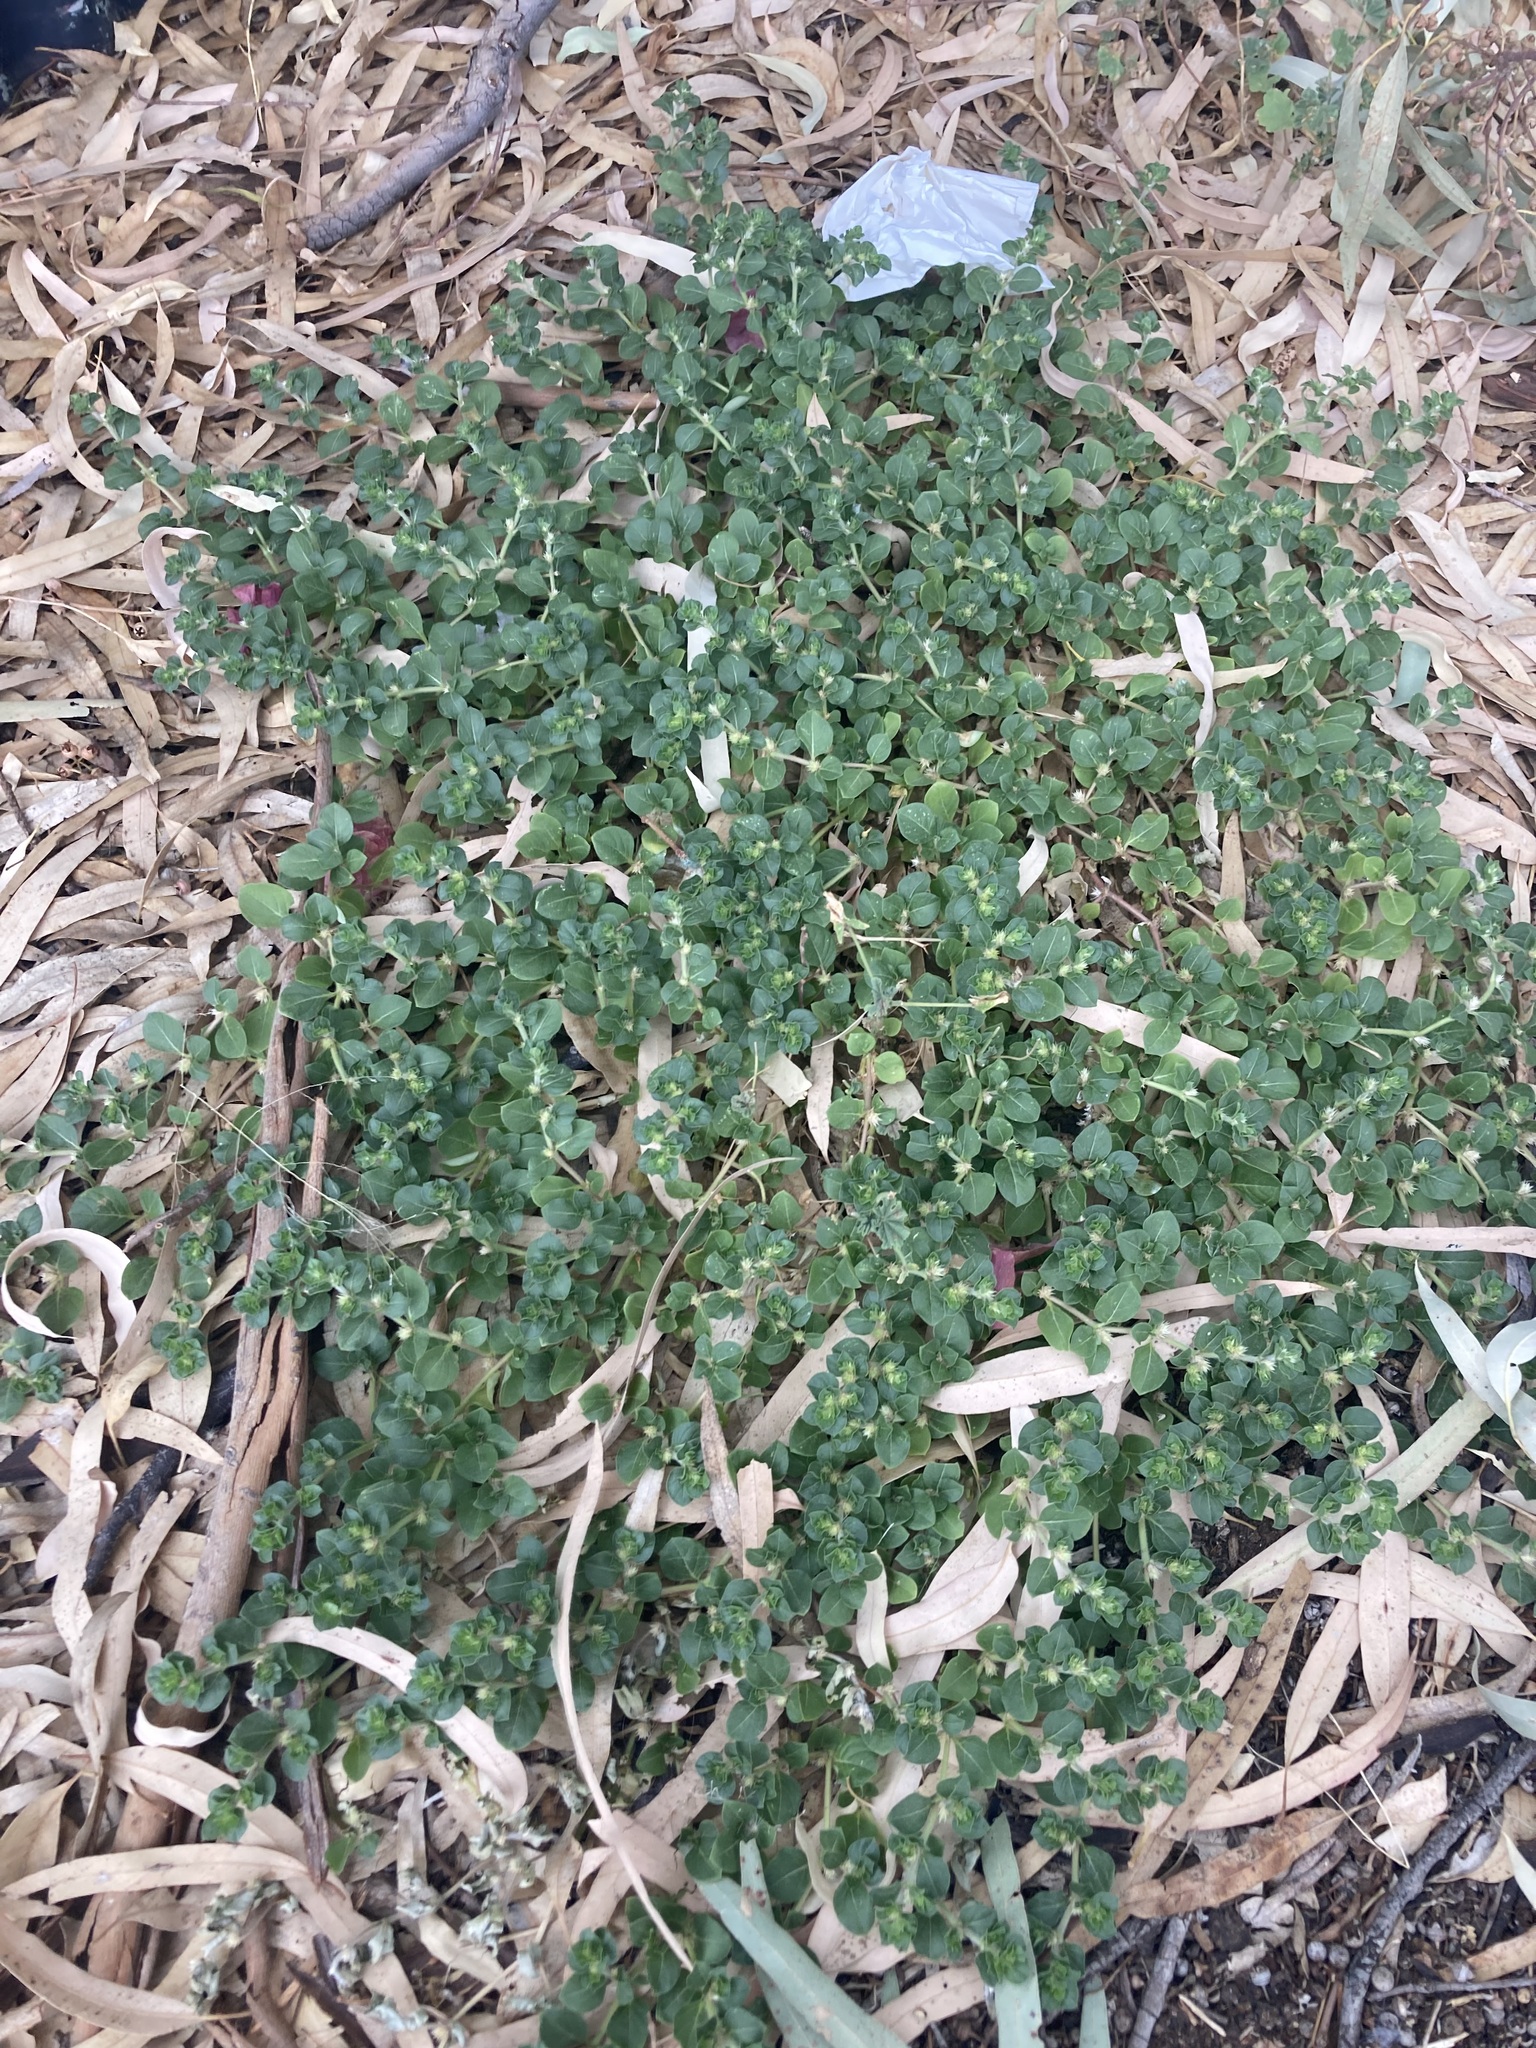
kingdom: Plantae
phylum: Tracheophyta
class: Magnoliopsida
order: Caryophyllales
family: Amaranthaceae
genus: Alternanthera
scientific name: Alternanthera pungens
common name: Khakiweed
